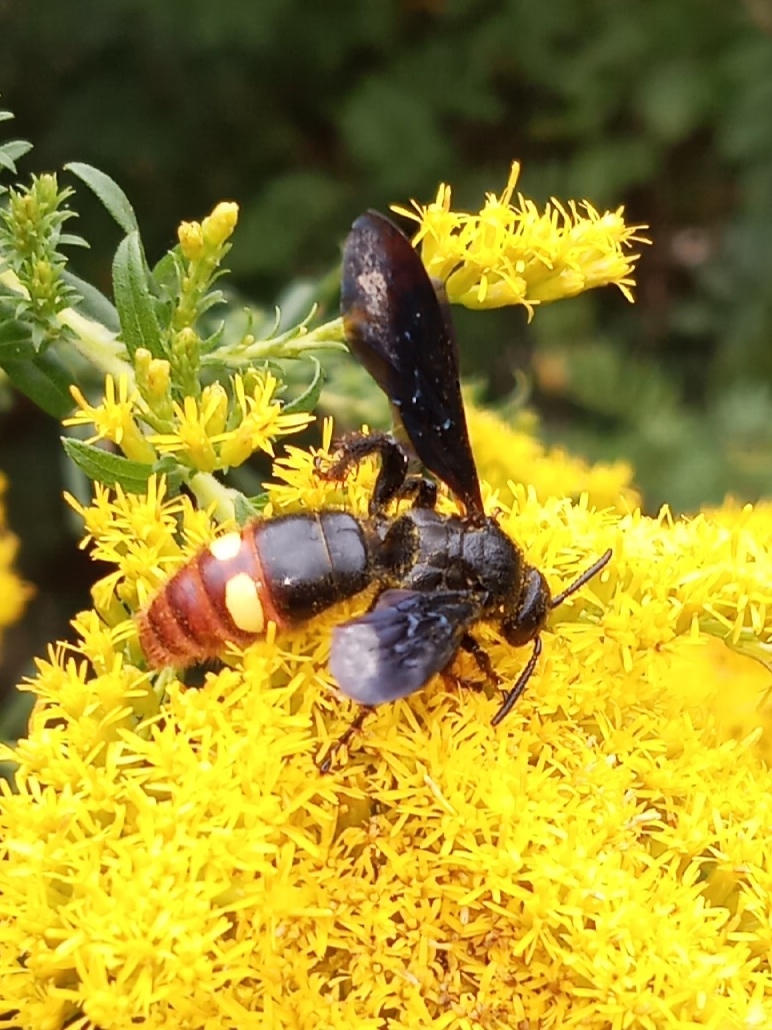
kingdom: Animalia
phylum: Arthropoda
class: Insecta
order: Hymenoptera
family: Scoliidae
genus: Scolia
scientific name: Scolia dubia
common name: Blue-winged scoliid wasp
